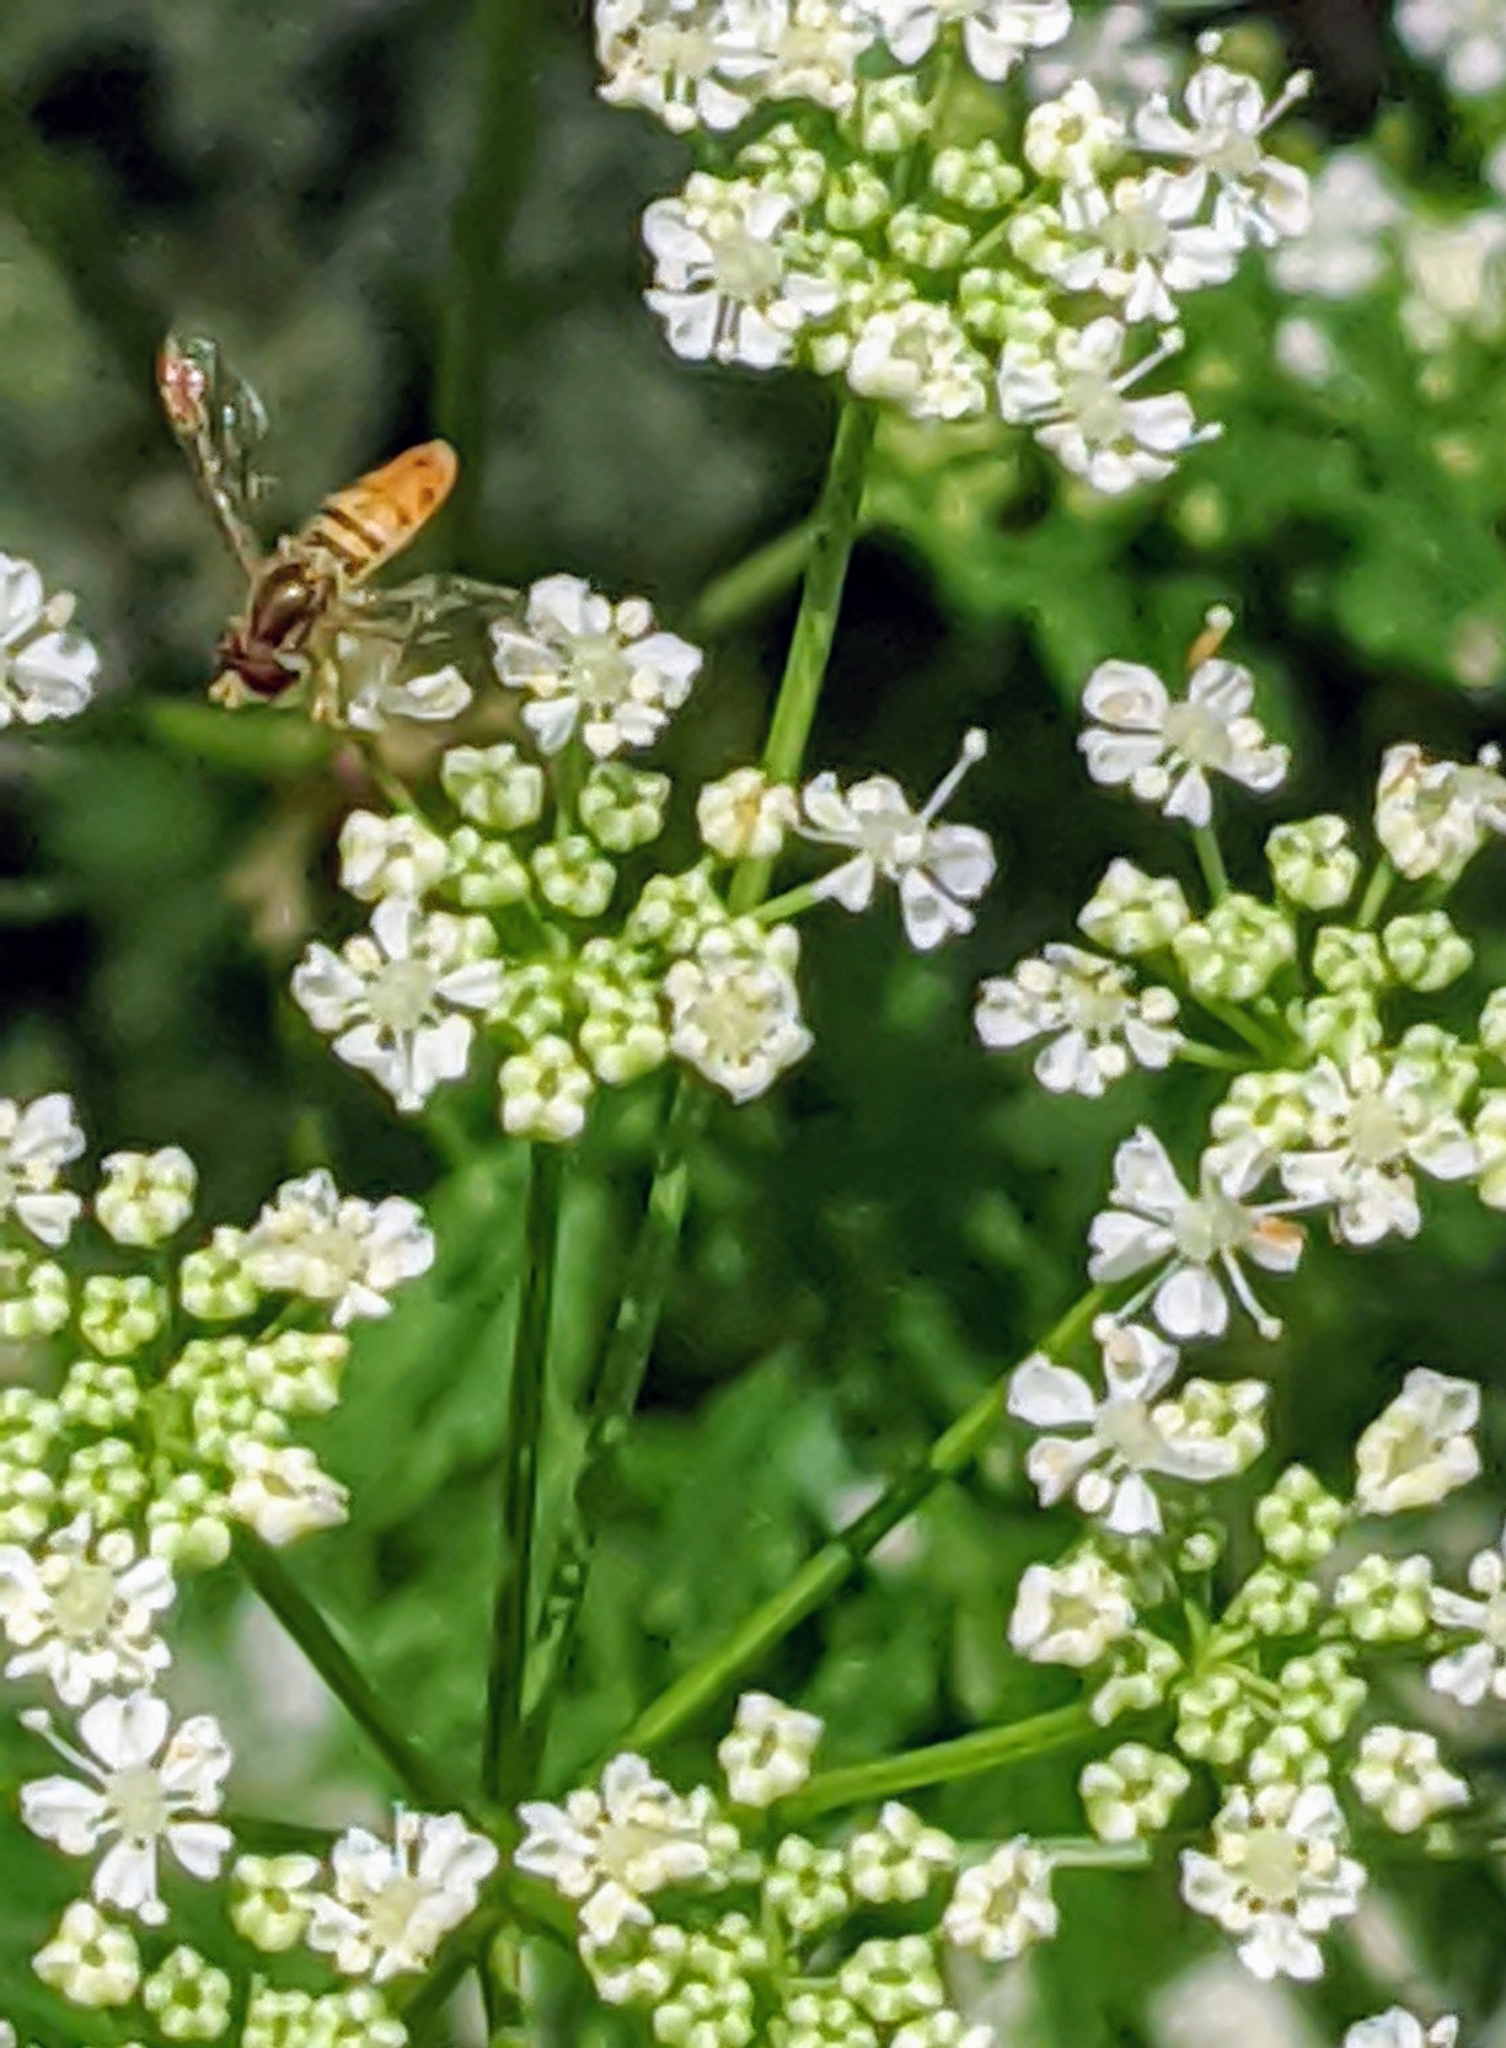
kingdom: Animalia
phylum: Arthropoda
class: Insecta
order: Diptera
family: Syrphidae
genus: Toxomerus
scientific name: Toxomerus marginatus
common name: Syrphid fly
